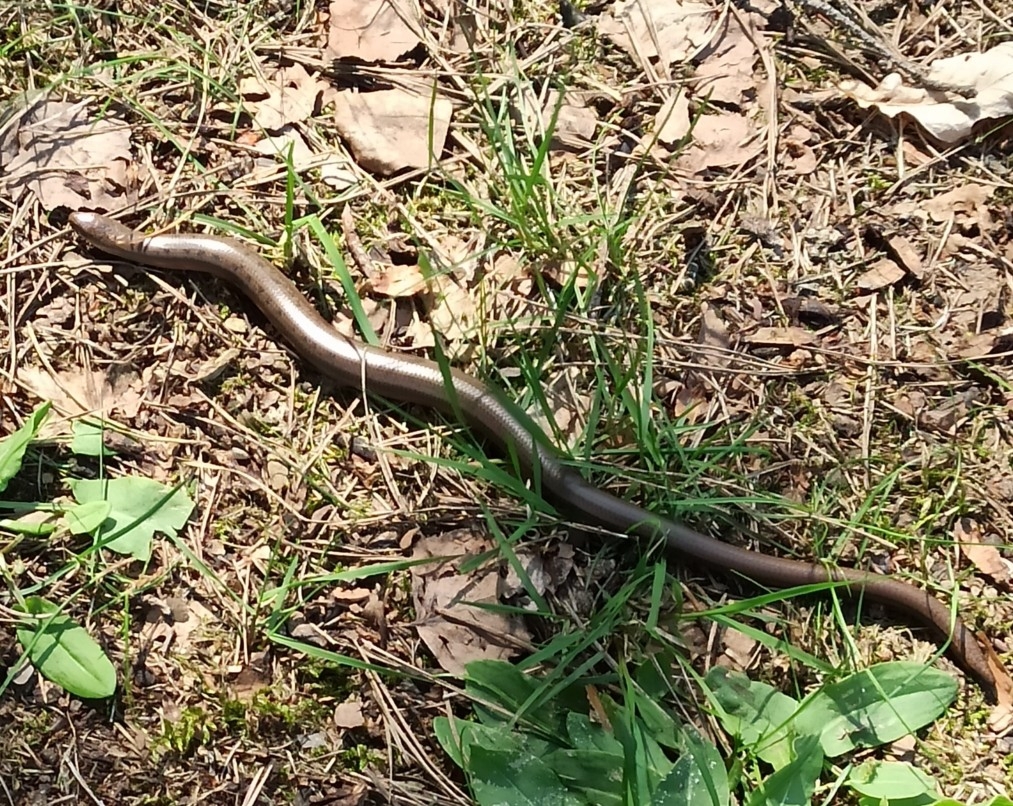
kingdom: Animalia
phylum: Chordata
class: Squamata
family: Anguidae
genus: Anguis
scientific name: Anguis colchica
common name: Slow worm
